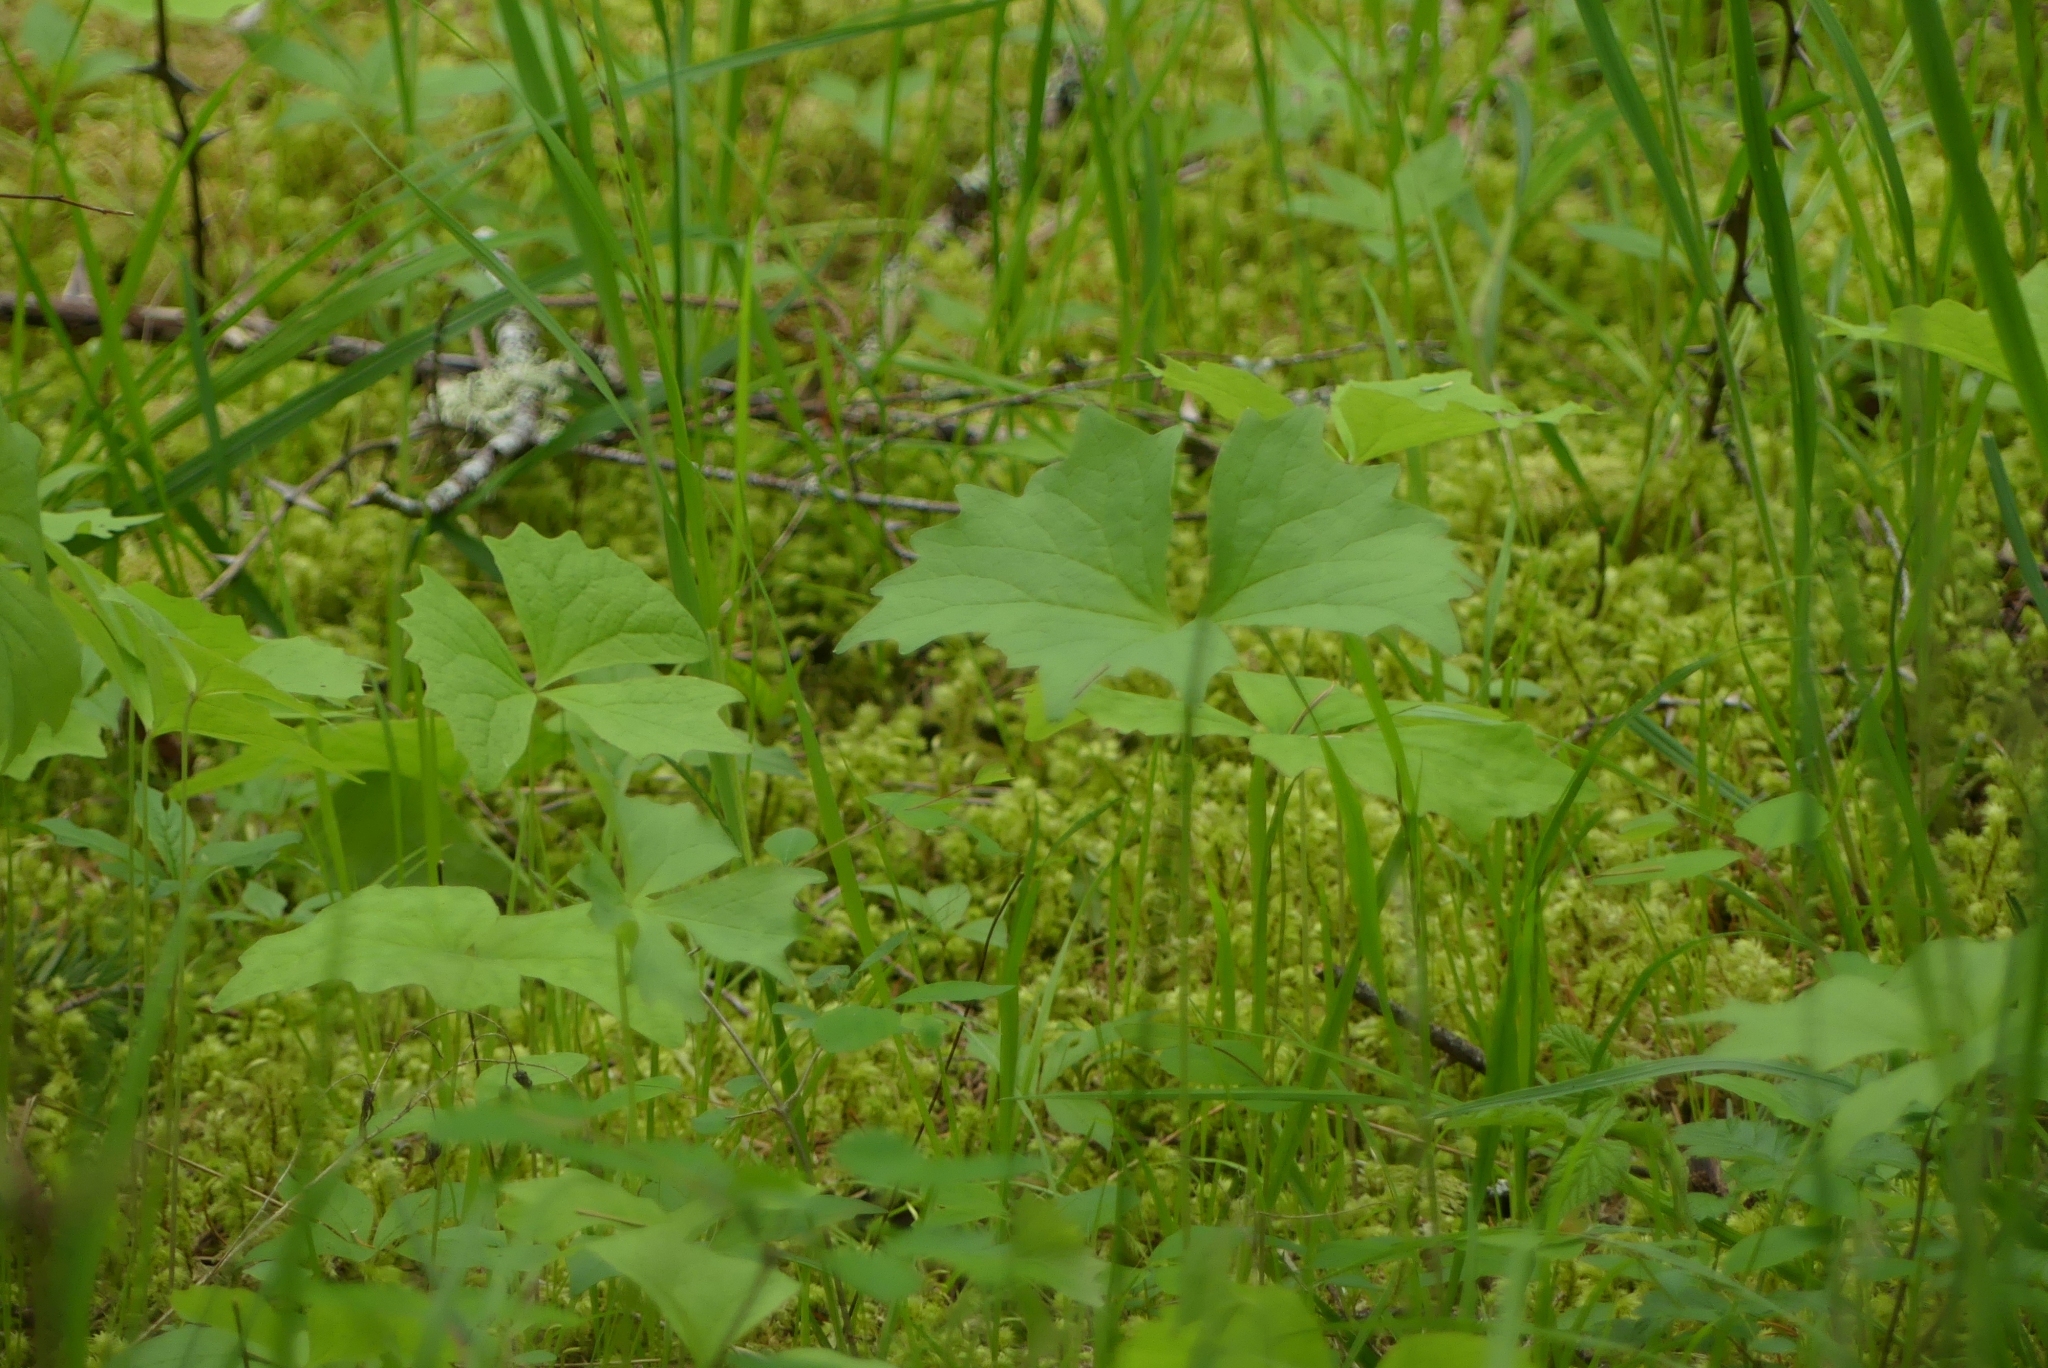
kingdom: Plantae
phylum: Tracheophyta
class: Magnoliopsida
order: Ranunculales
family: Berberidaceae
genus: Achlys
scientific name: Achlys triphylla
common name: Vanilla-leaf
